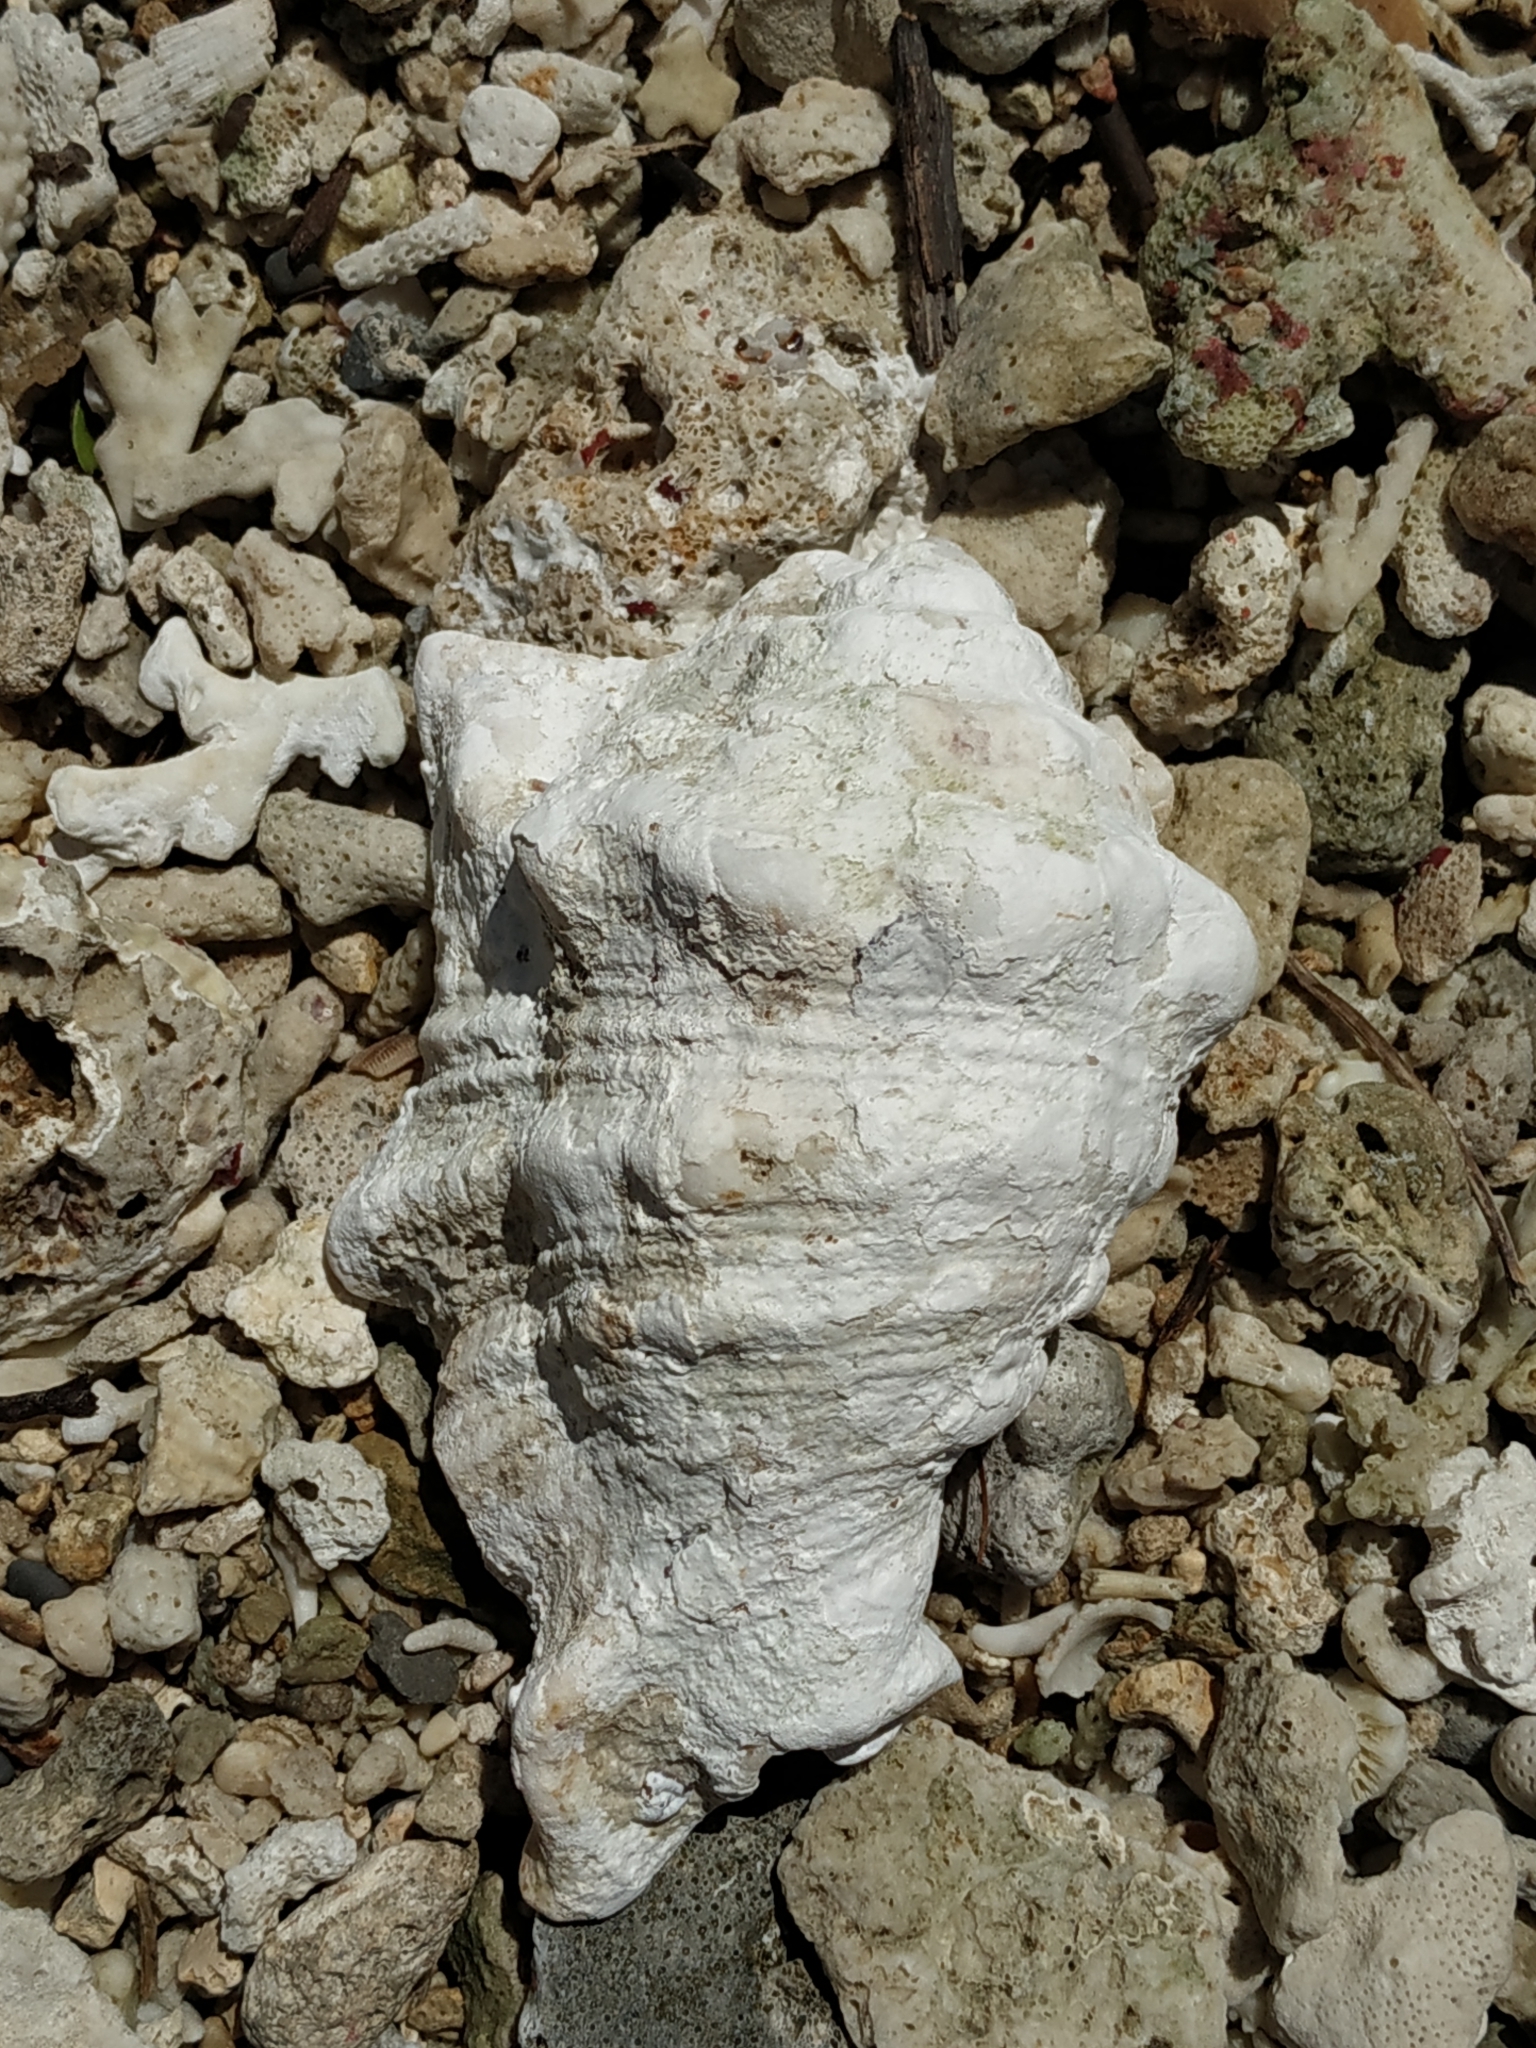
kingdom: Animalia
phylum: Mollusca
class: Gastropoda
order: Littorinimorpha
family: Strombidae
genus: Harpago
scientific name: Harpago chiragra
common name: Chiragra spider conch
